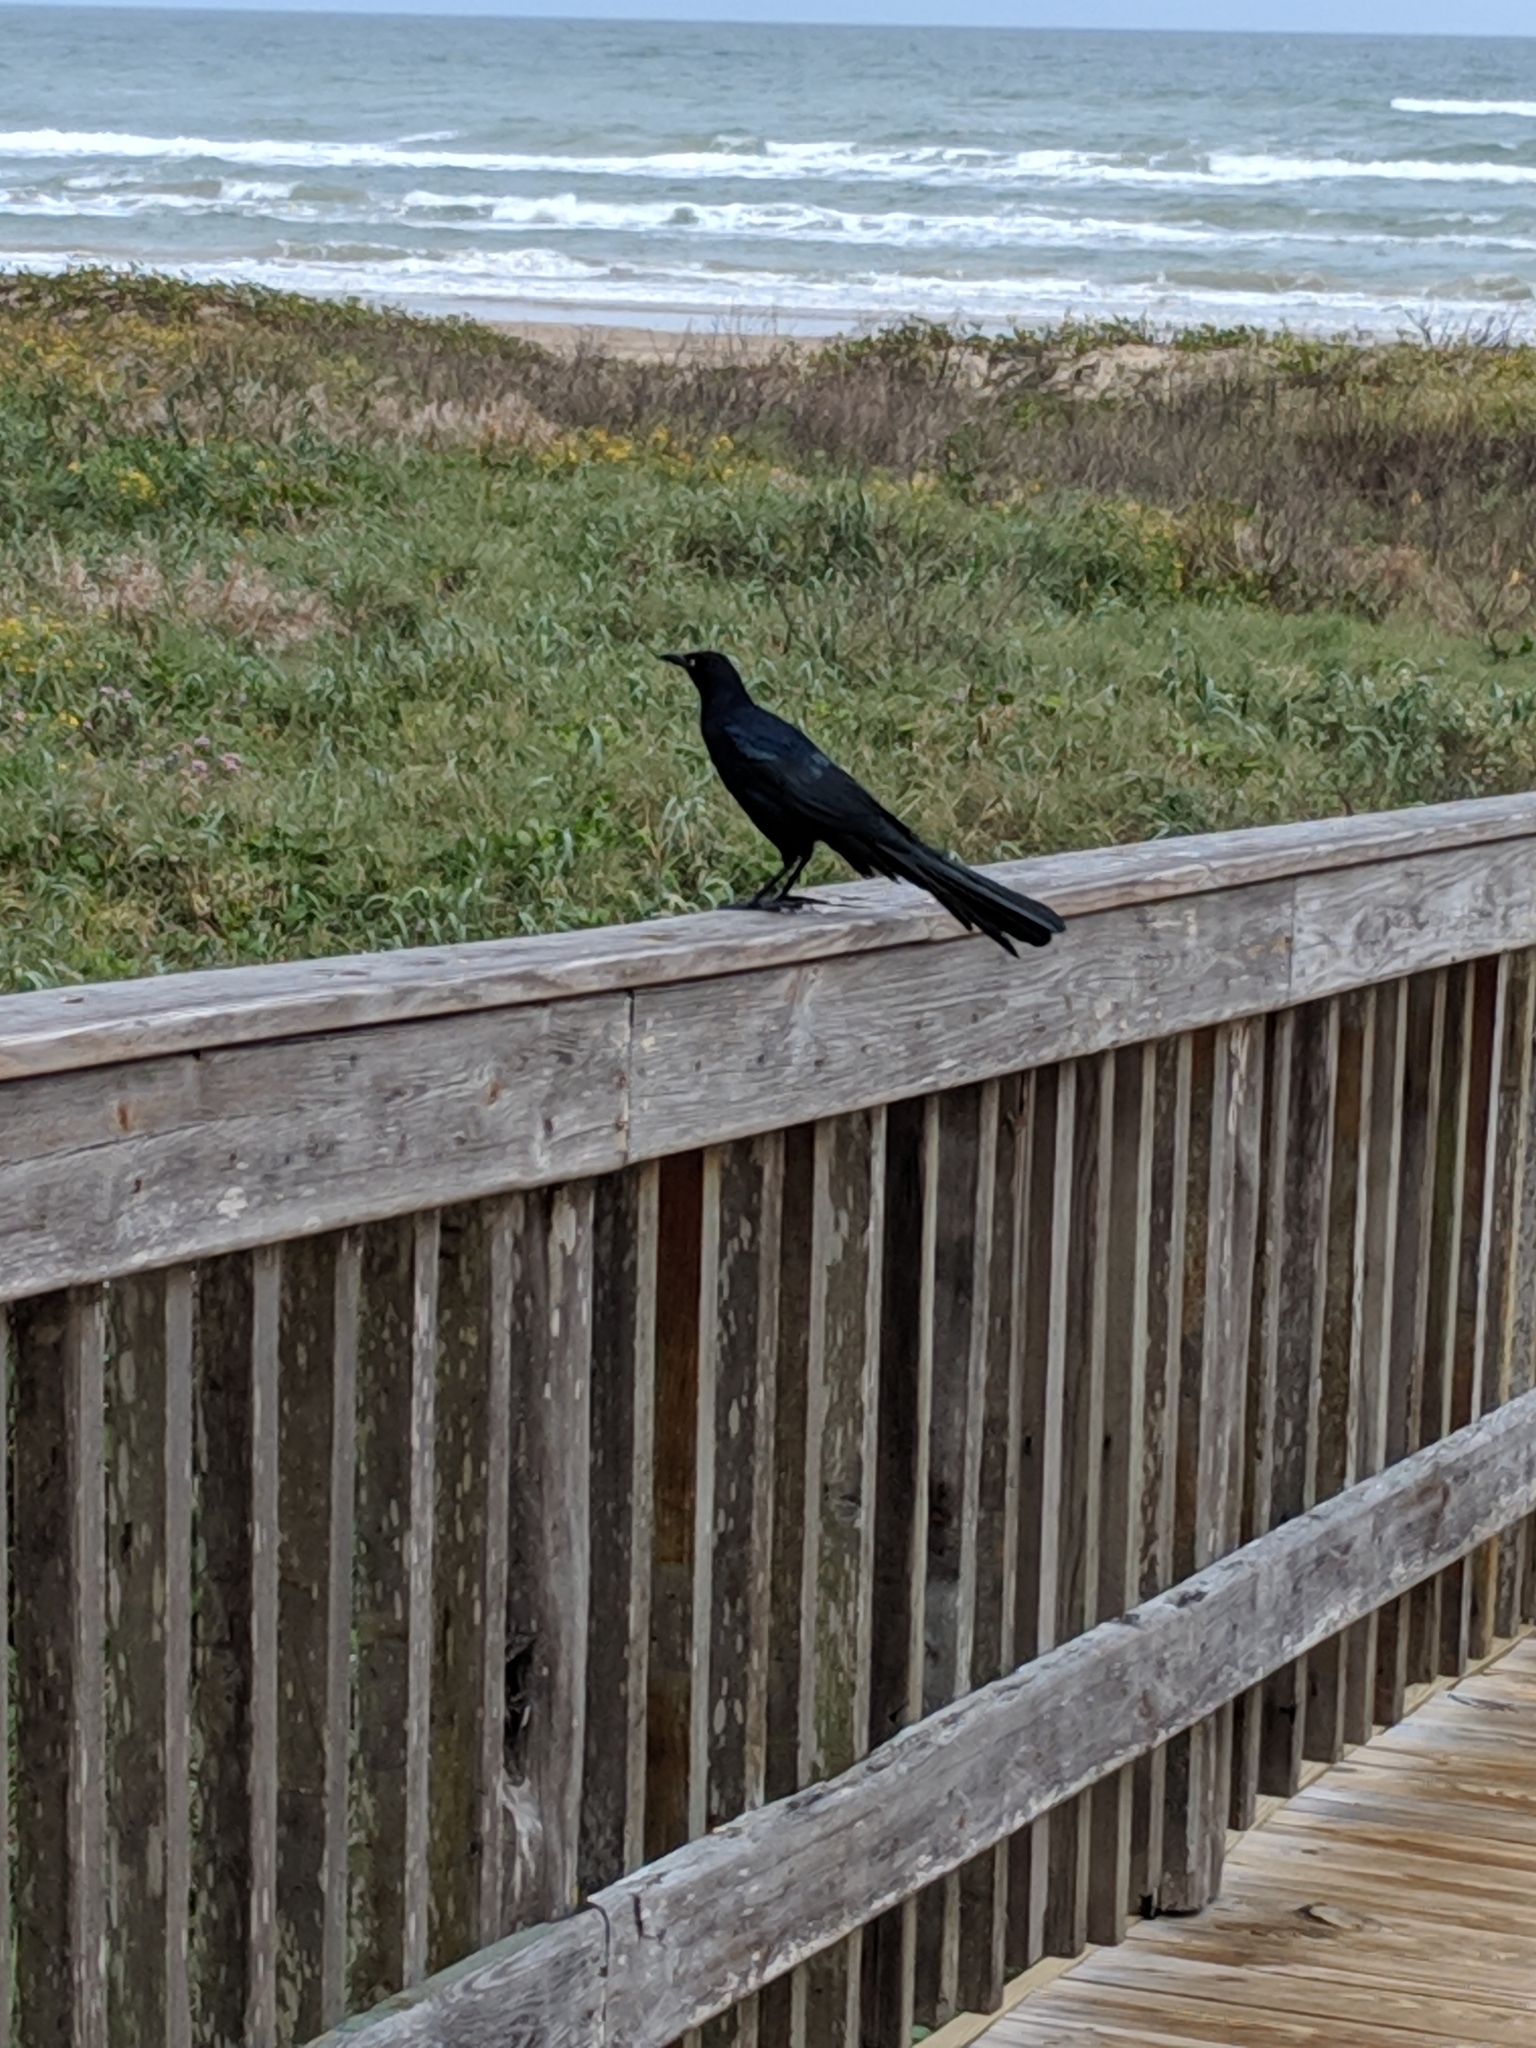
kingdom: Animalia
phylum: Chordata
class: Aves
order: Passeriformes
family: Icteridae
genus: Quiscalus
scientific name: Quiscalus mexicanus
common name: Great-tailed grackle
